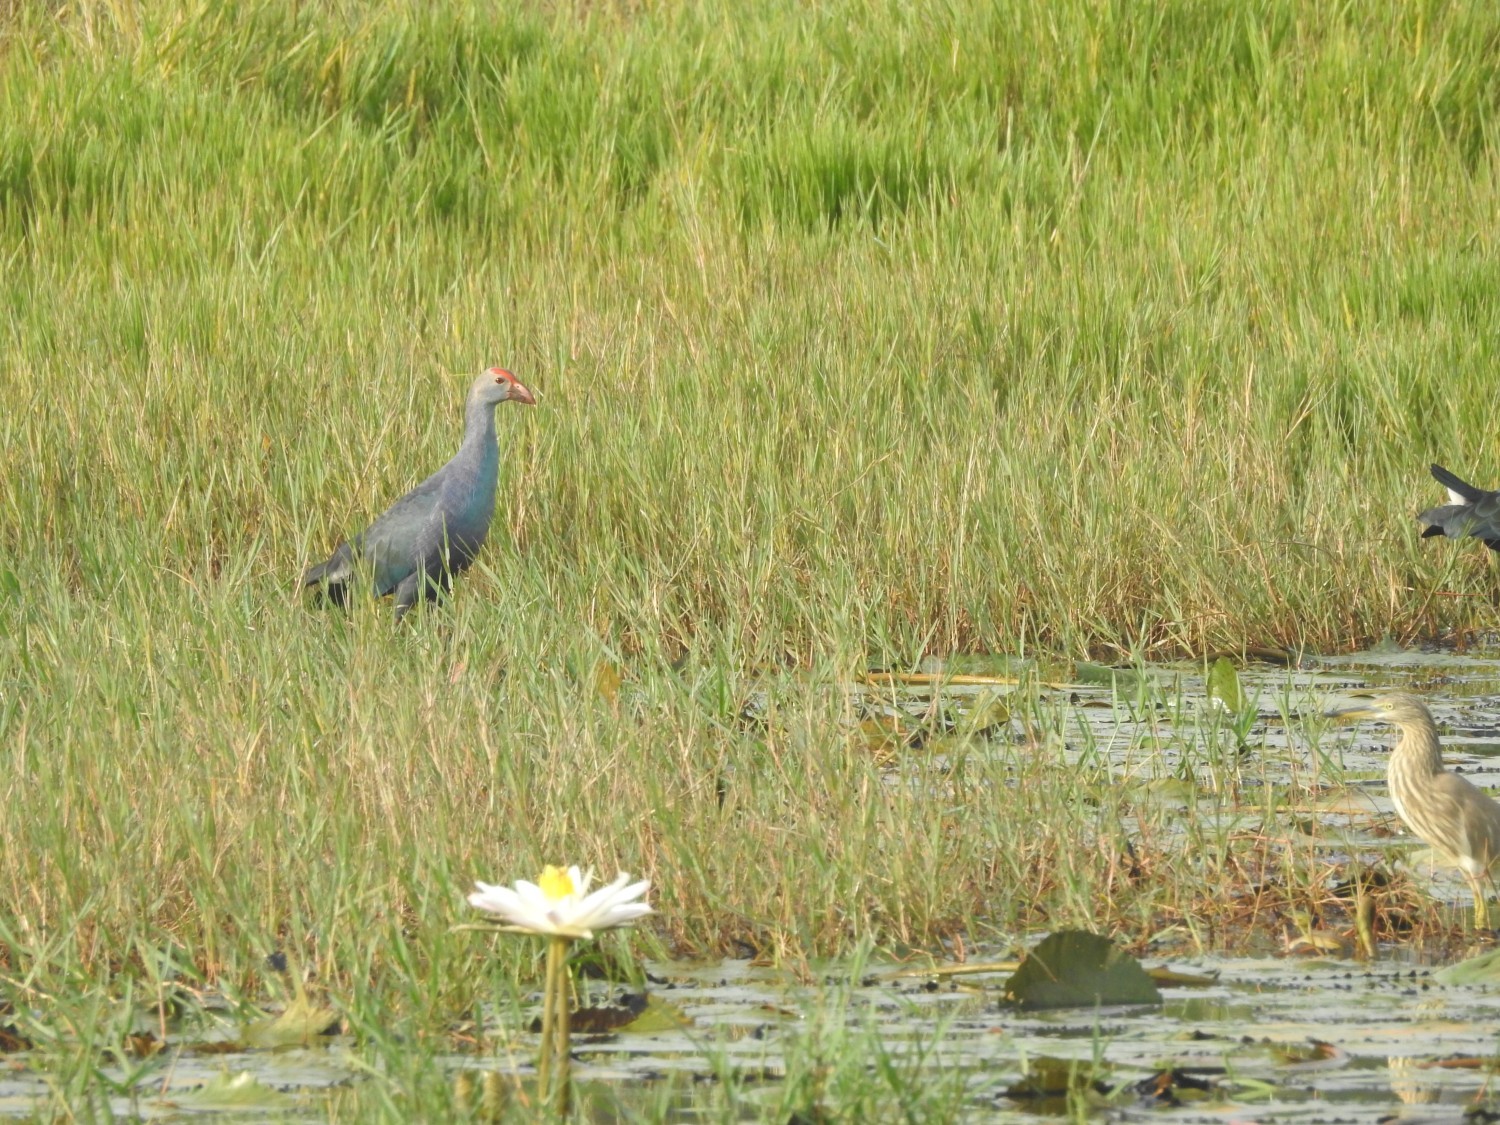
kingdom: Animalia
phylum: Chordata
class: Aves
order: Gruiformes
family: Rallidae
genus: Porphyrio
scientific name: Porphyrio porphyrio
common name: Purple swamphen
